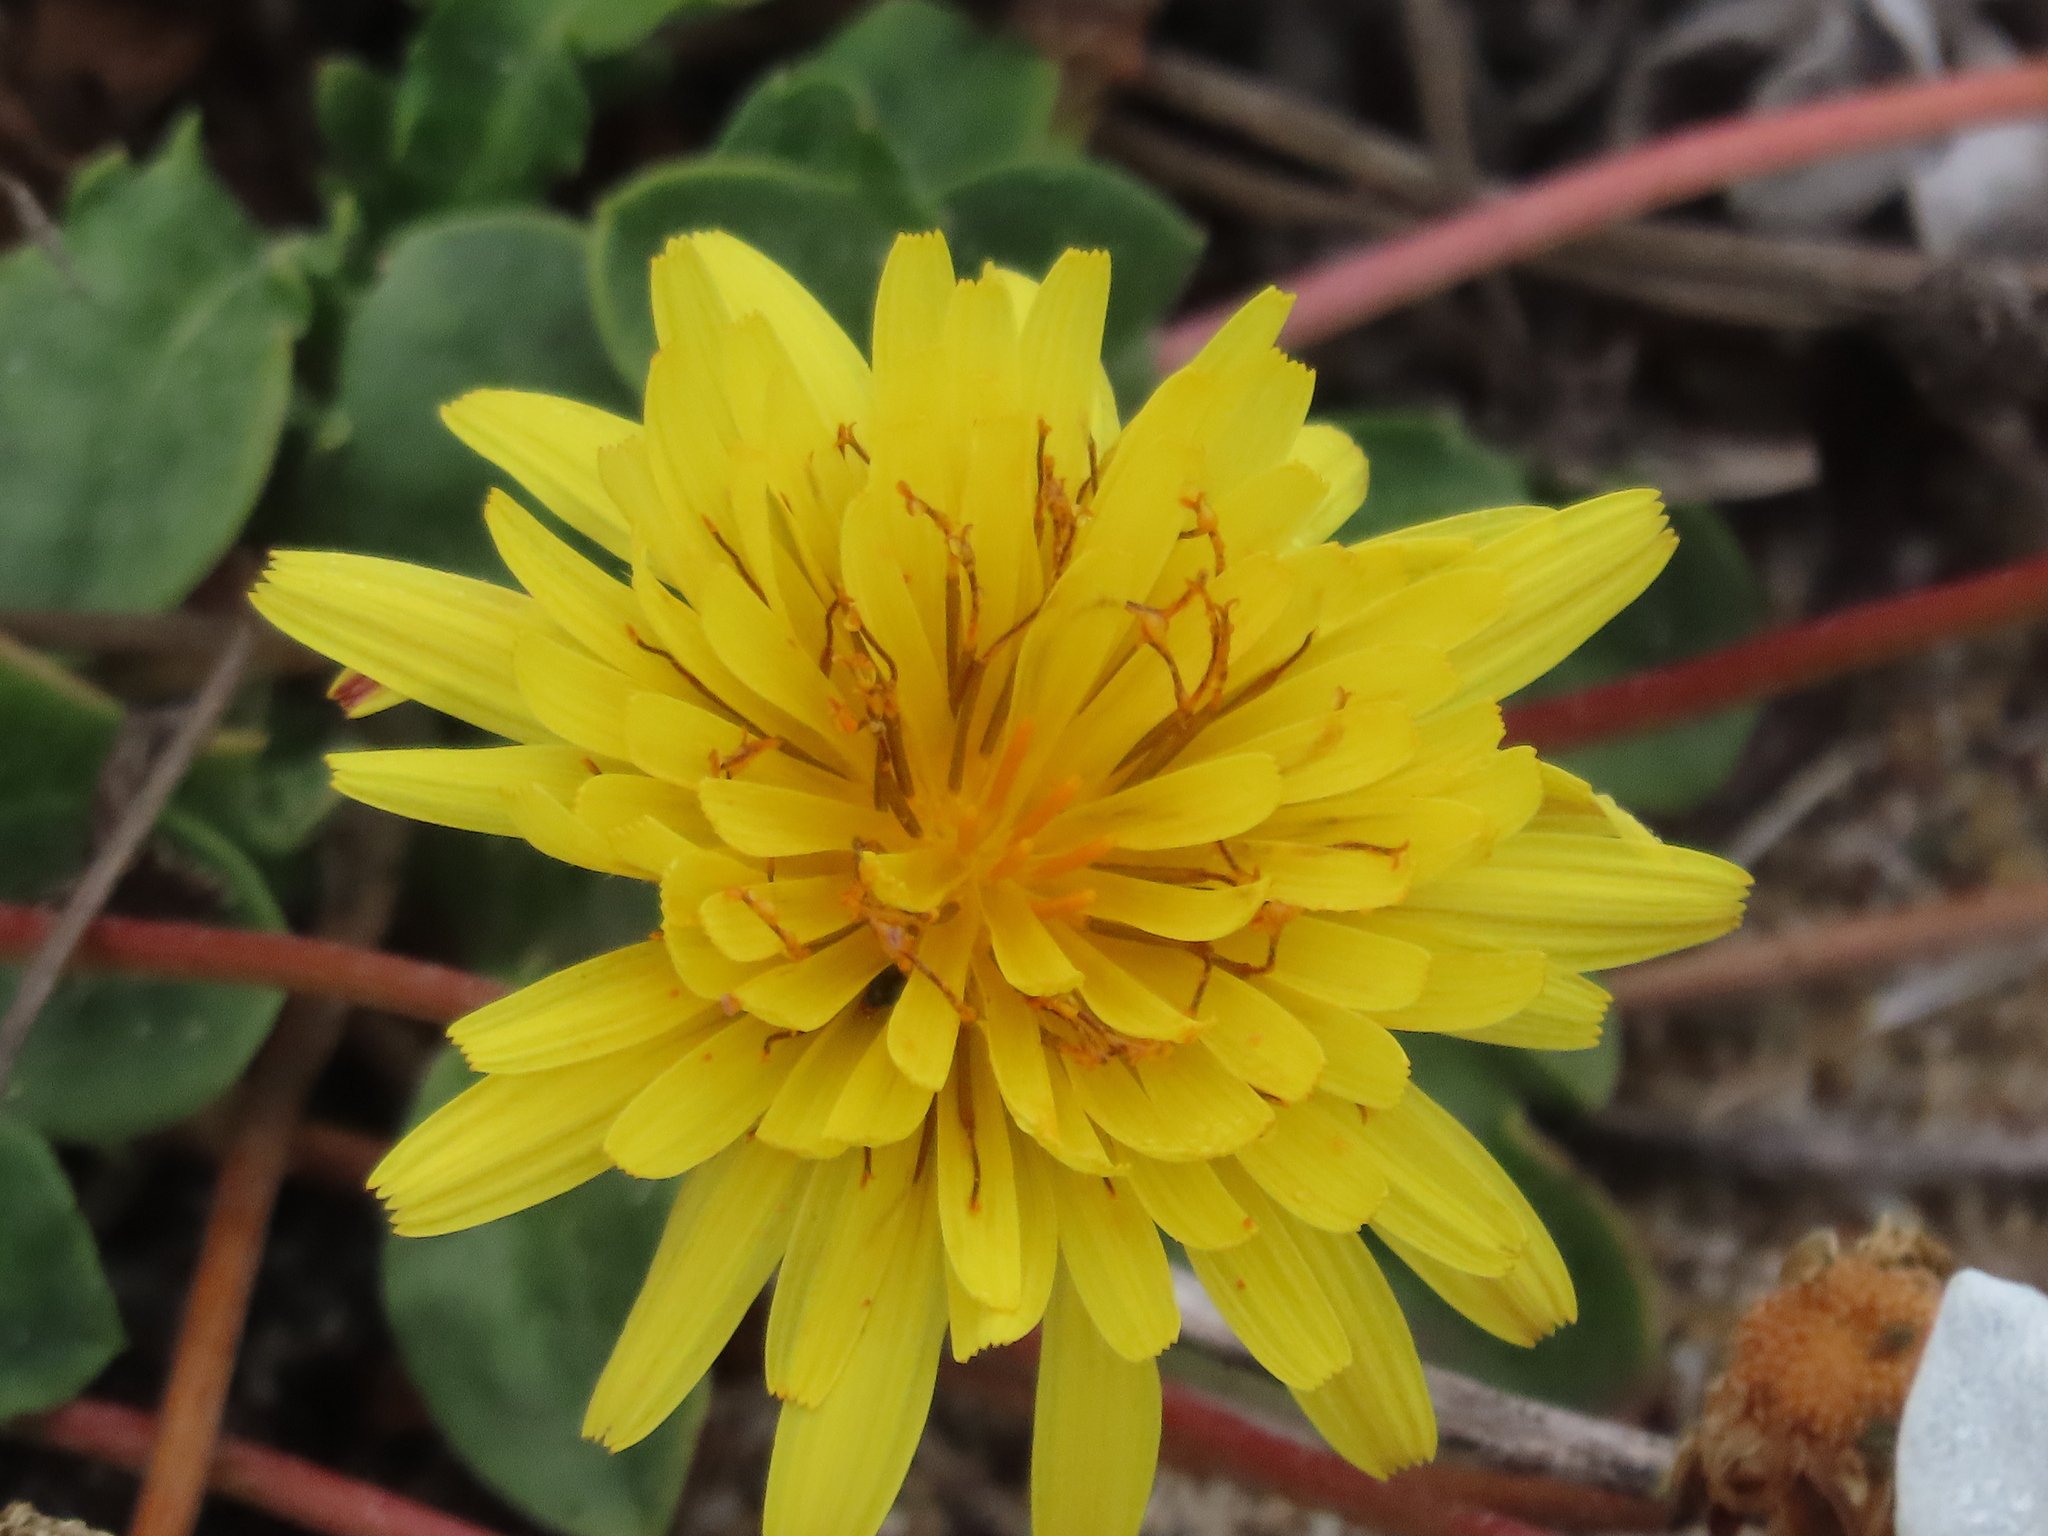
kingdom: Plantae
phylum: Tracheophyta
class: Magnoliopsida
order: Asterales
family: Asteraceae
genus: Agoseris
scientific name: Agoseris apargioides
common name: Point reyes agoseris
